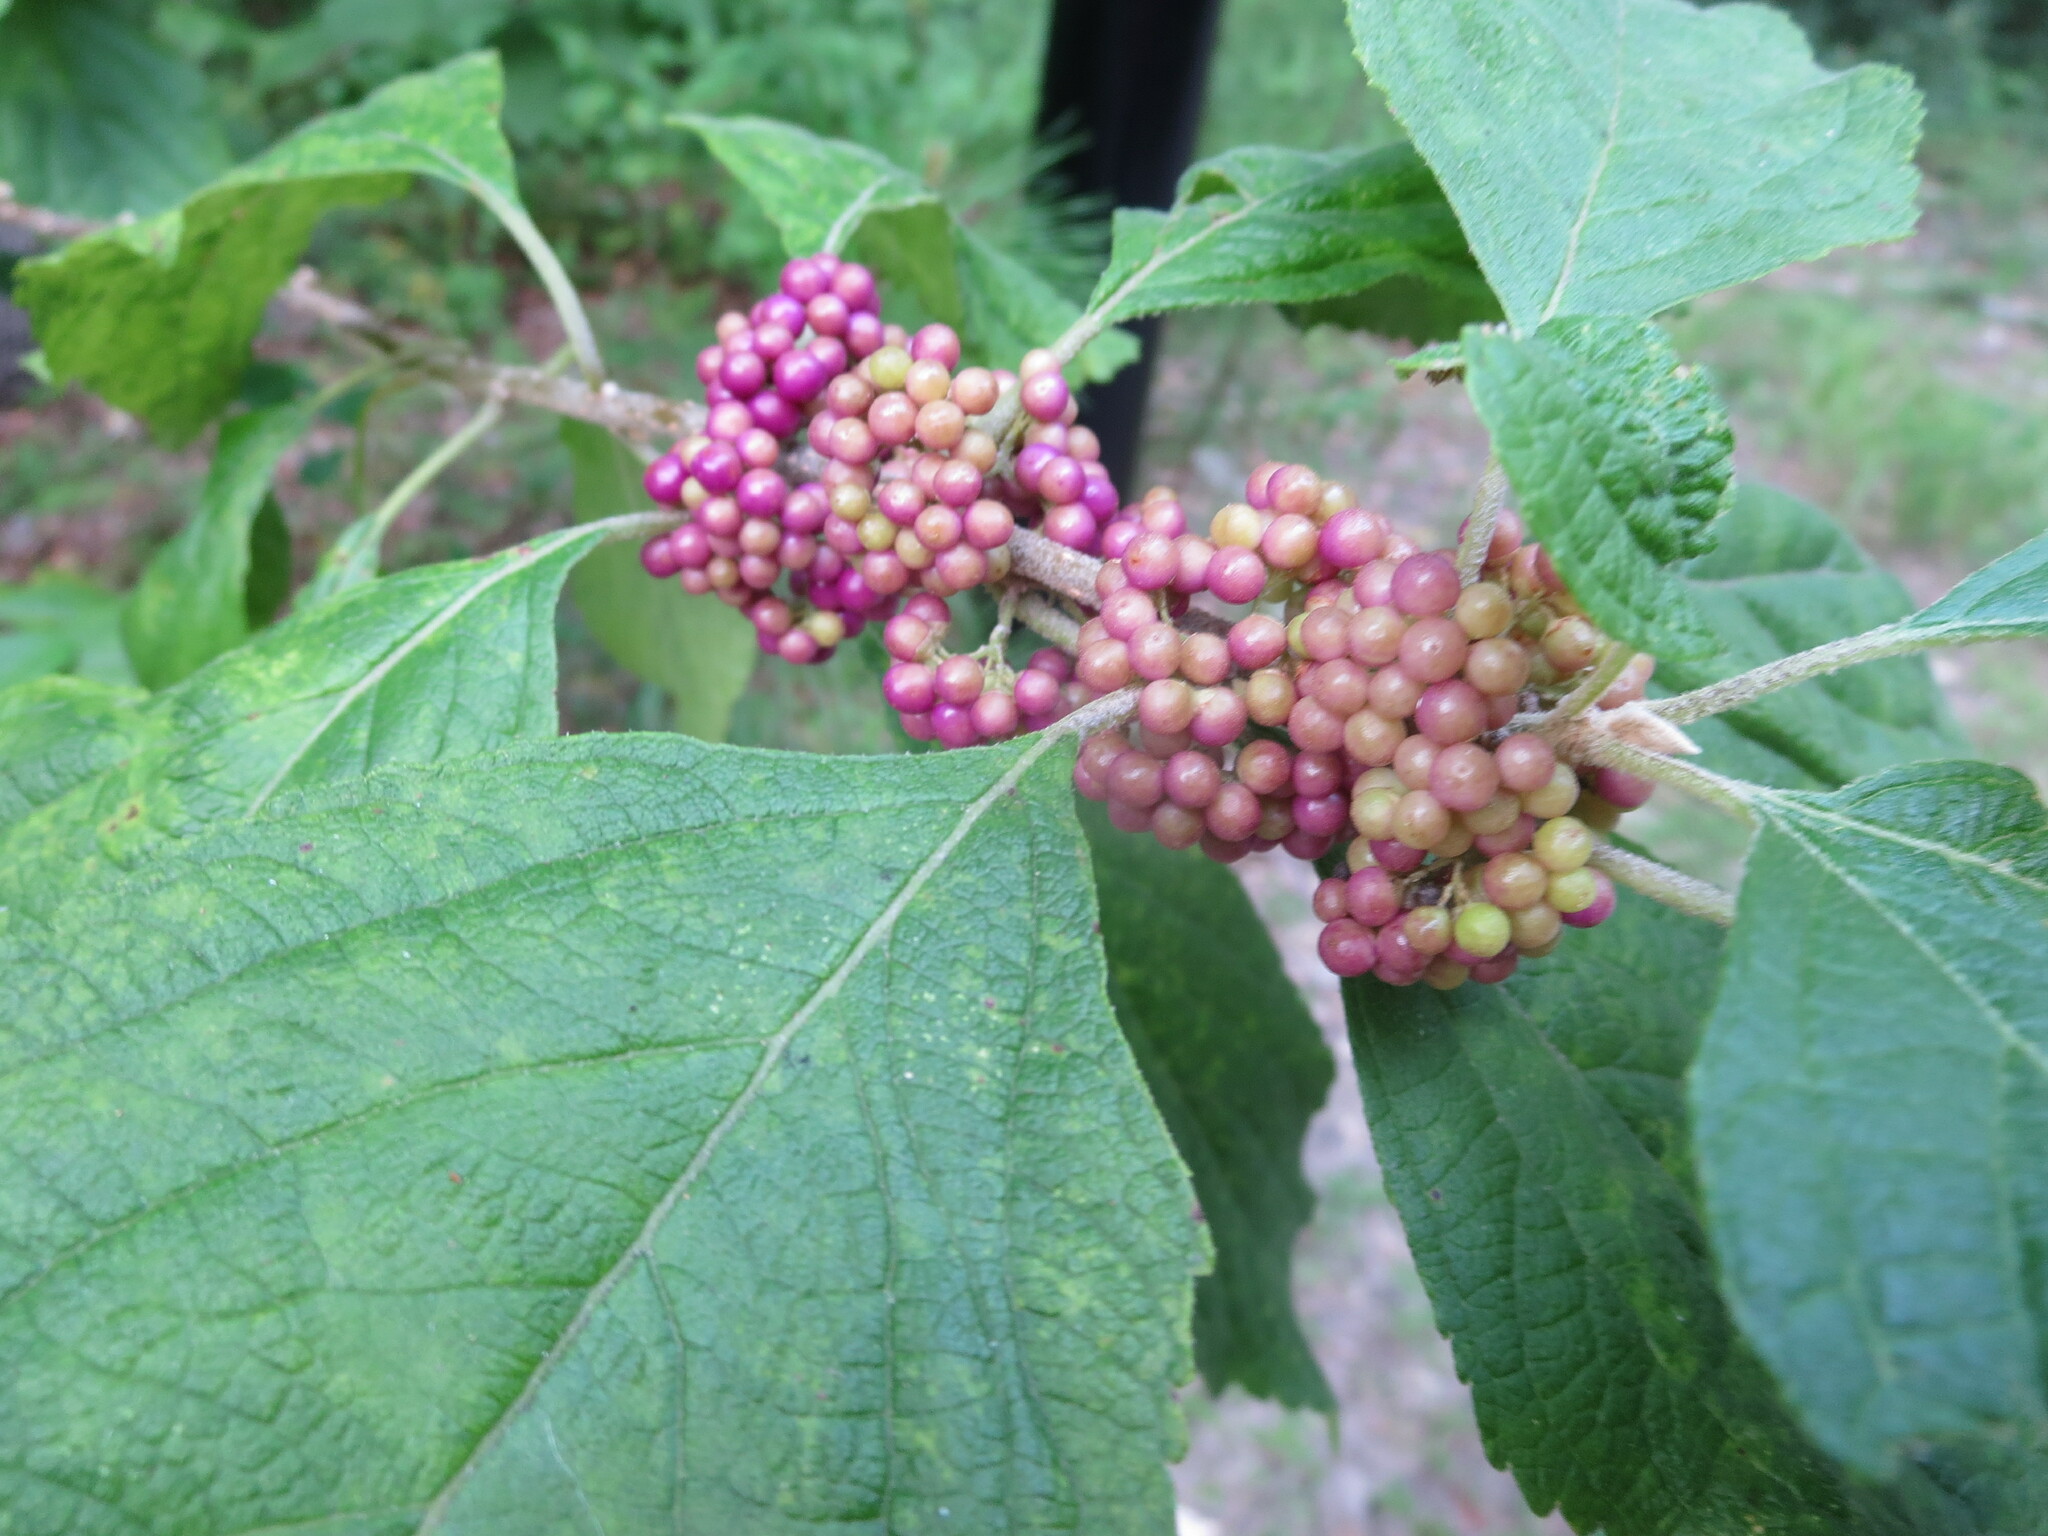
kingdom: Plantae
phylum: Tracheophyta
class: Magnoliopsida
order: Lamiales
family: Lamiaceae
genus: Callicarpa
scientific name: Callicarpa americana
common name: American beautyberry
